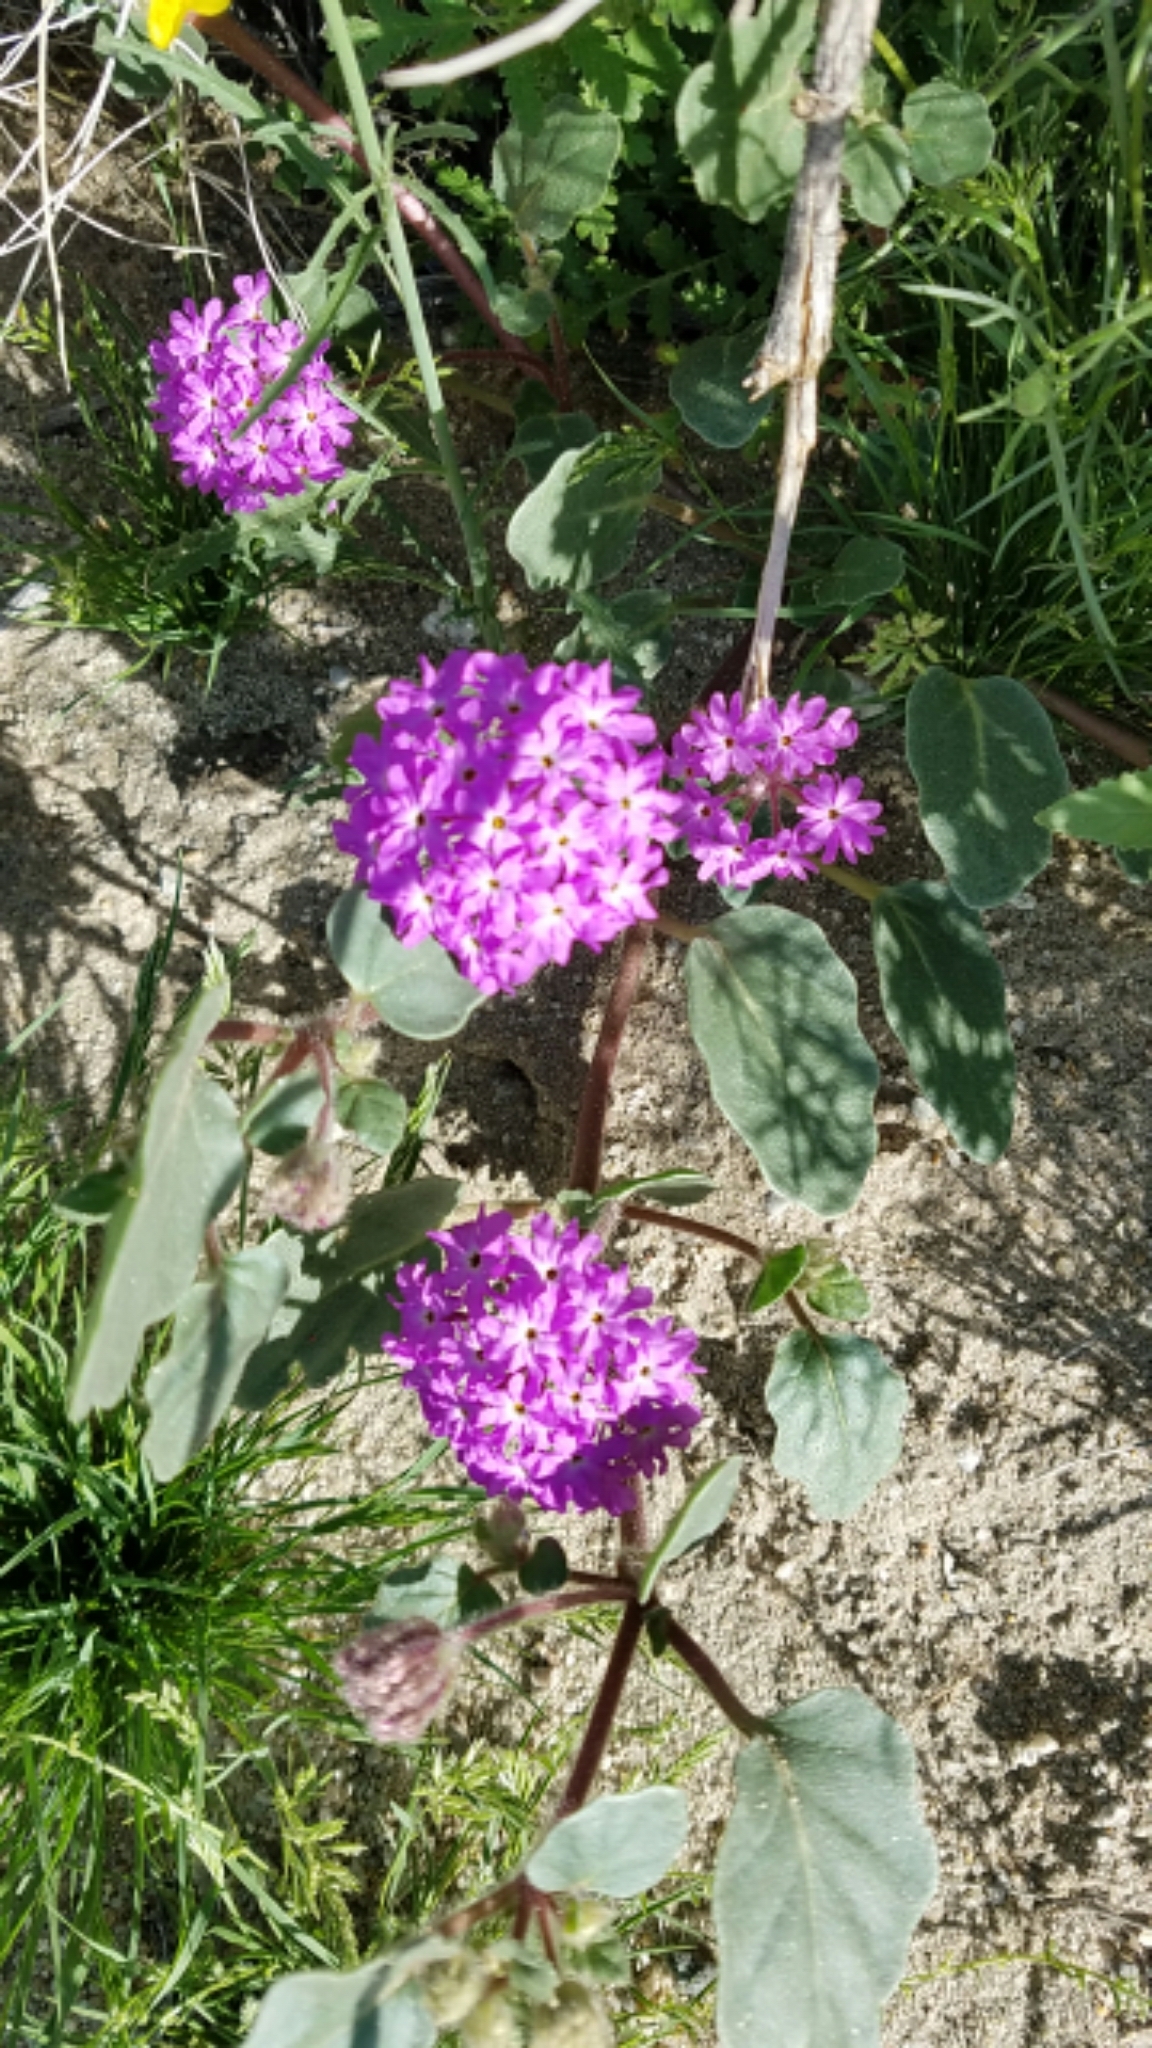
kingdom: Plantae
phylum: Tracheophyta
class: Magnoliopsida
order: Caryophyllales
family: Nyctaginaceae
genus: Abronia
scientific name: Abronia villosa
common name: Desert sand-verbena
